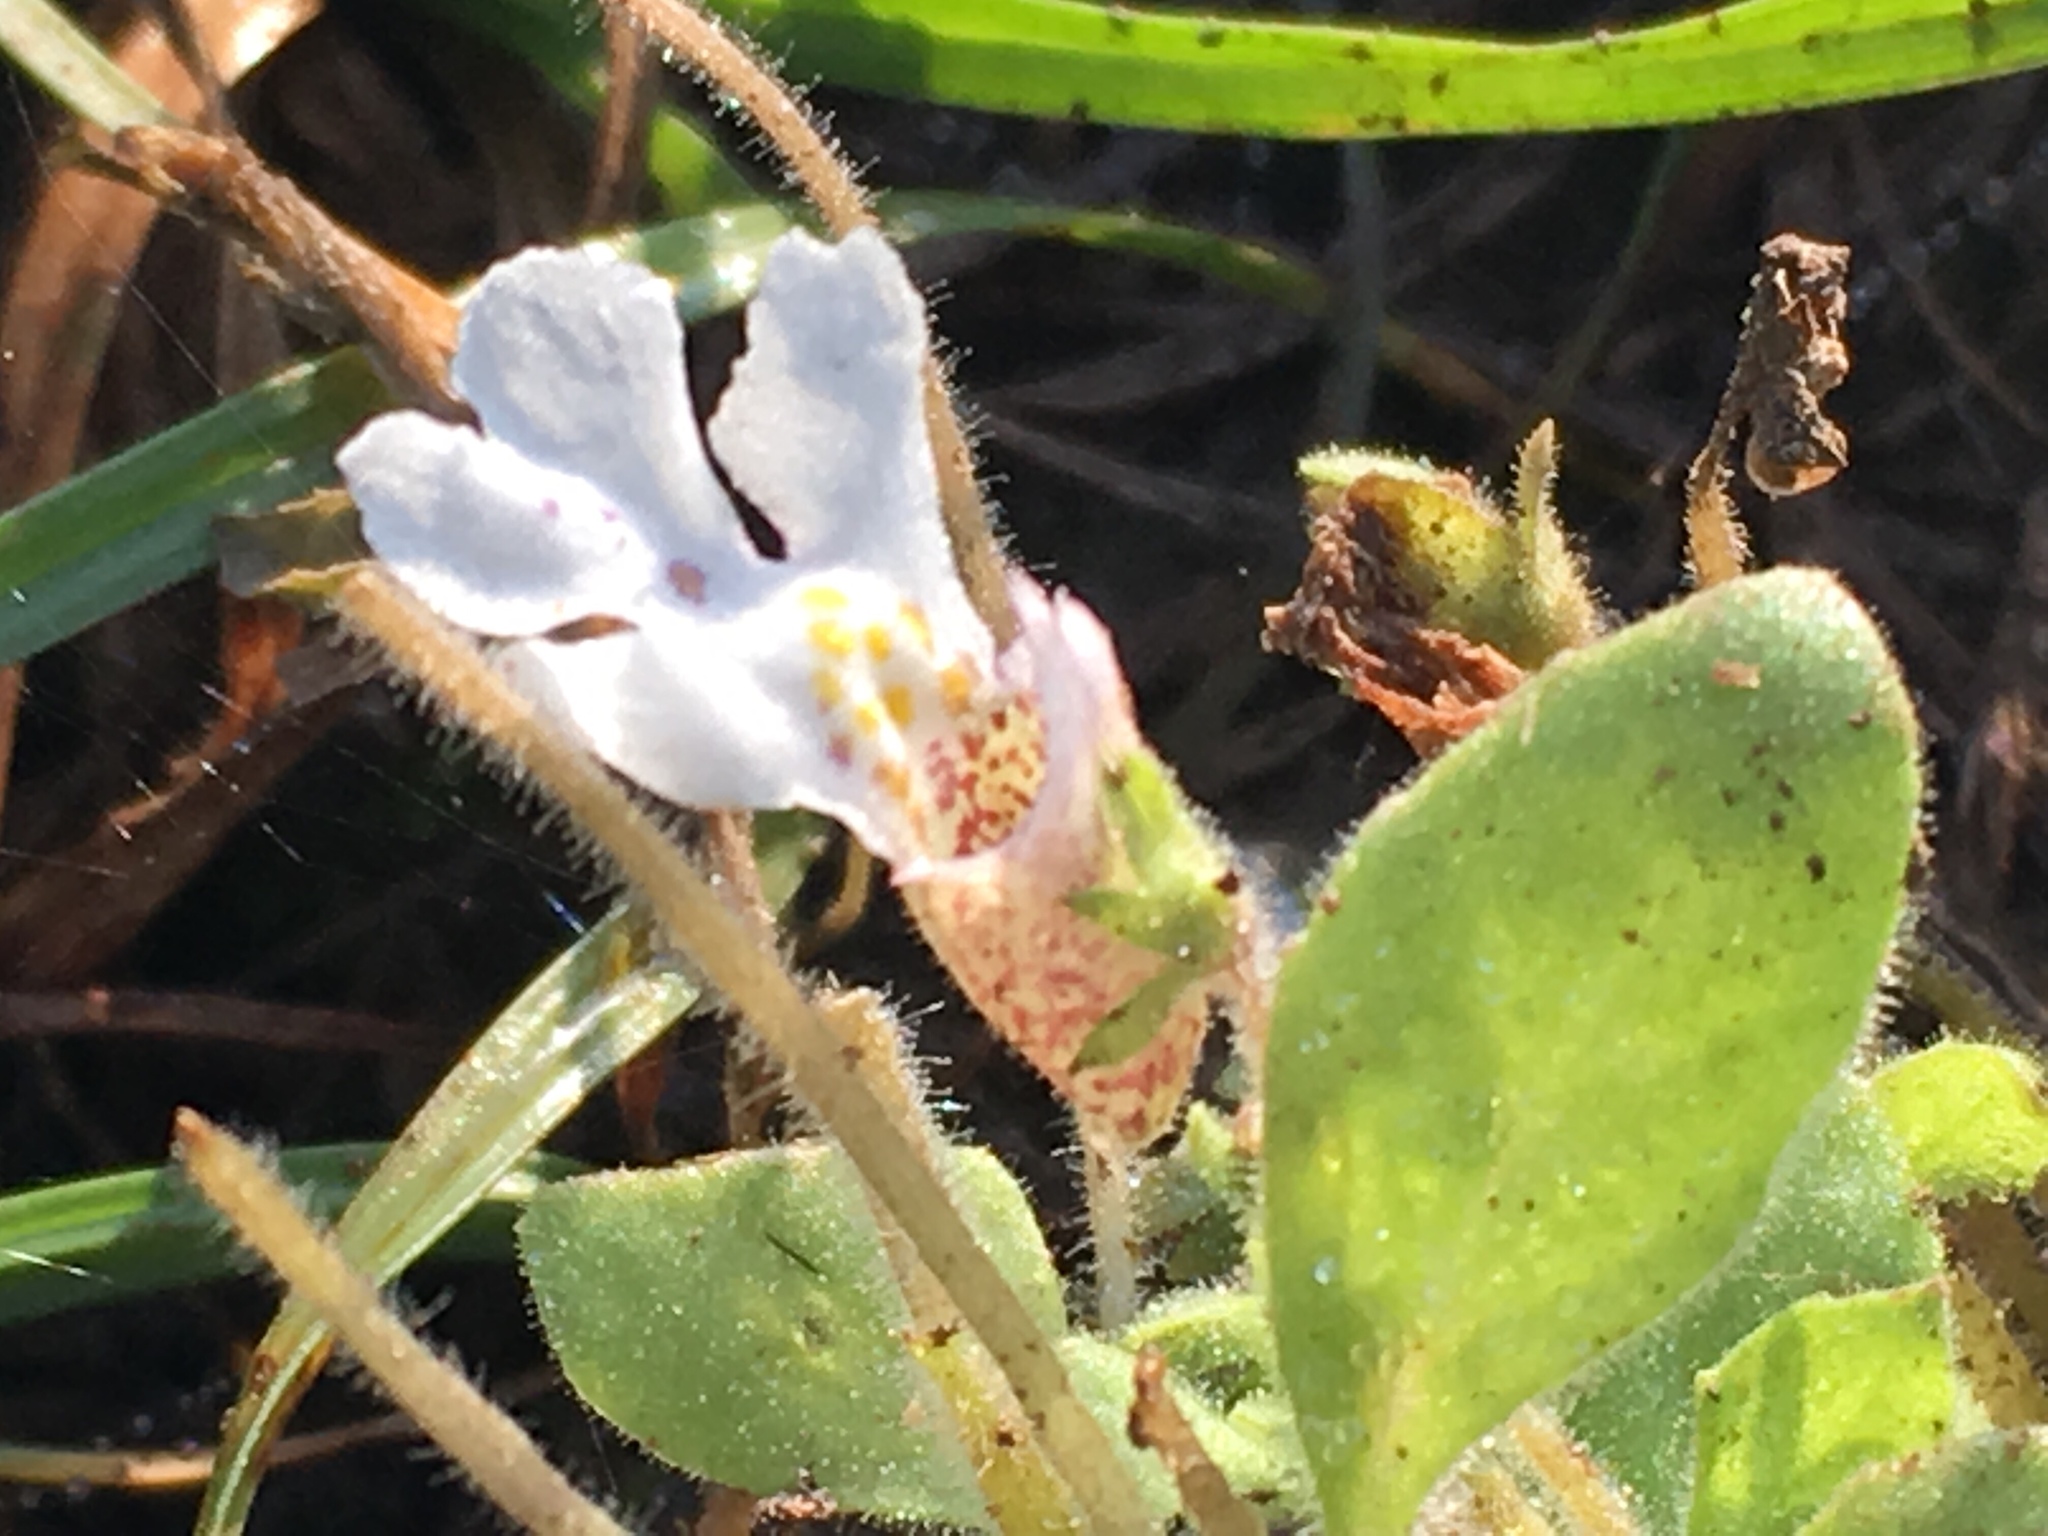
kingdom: Plantae
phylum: Tracheophyta
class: Magnoliopsida
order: Lamiales
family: Scrophulariaceae
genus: Diclis
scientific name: Diclis petiolaris
